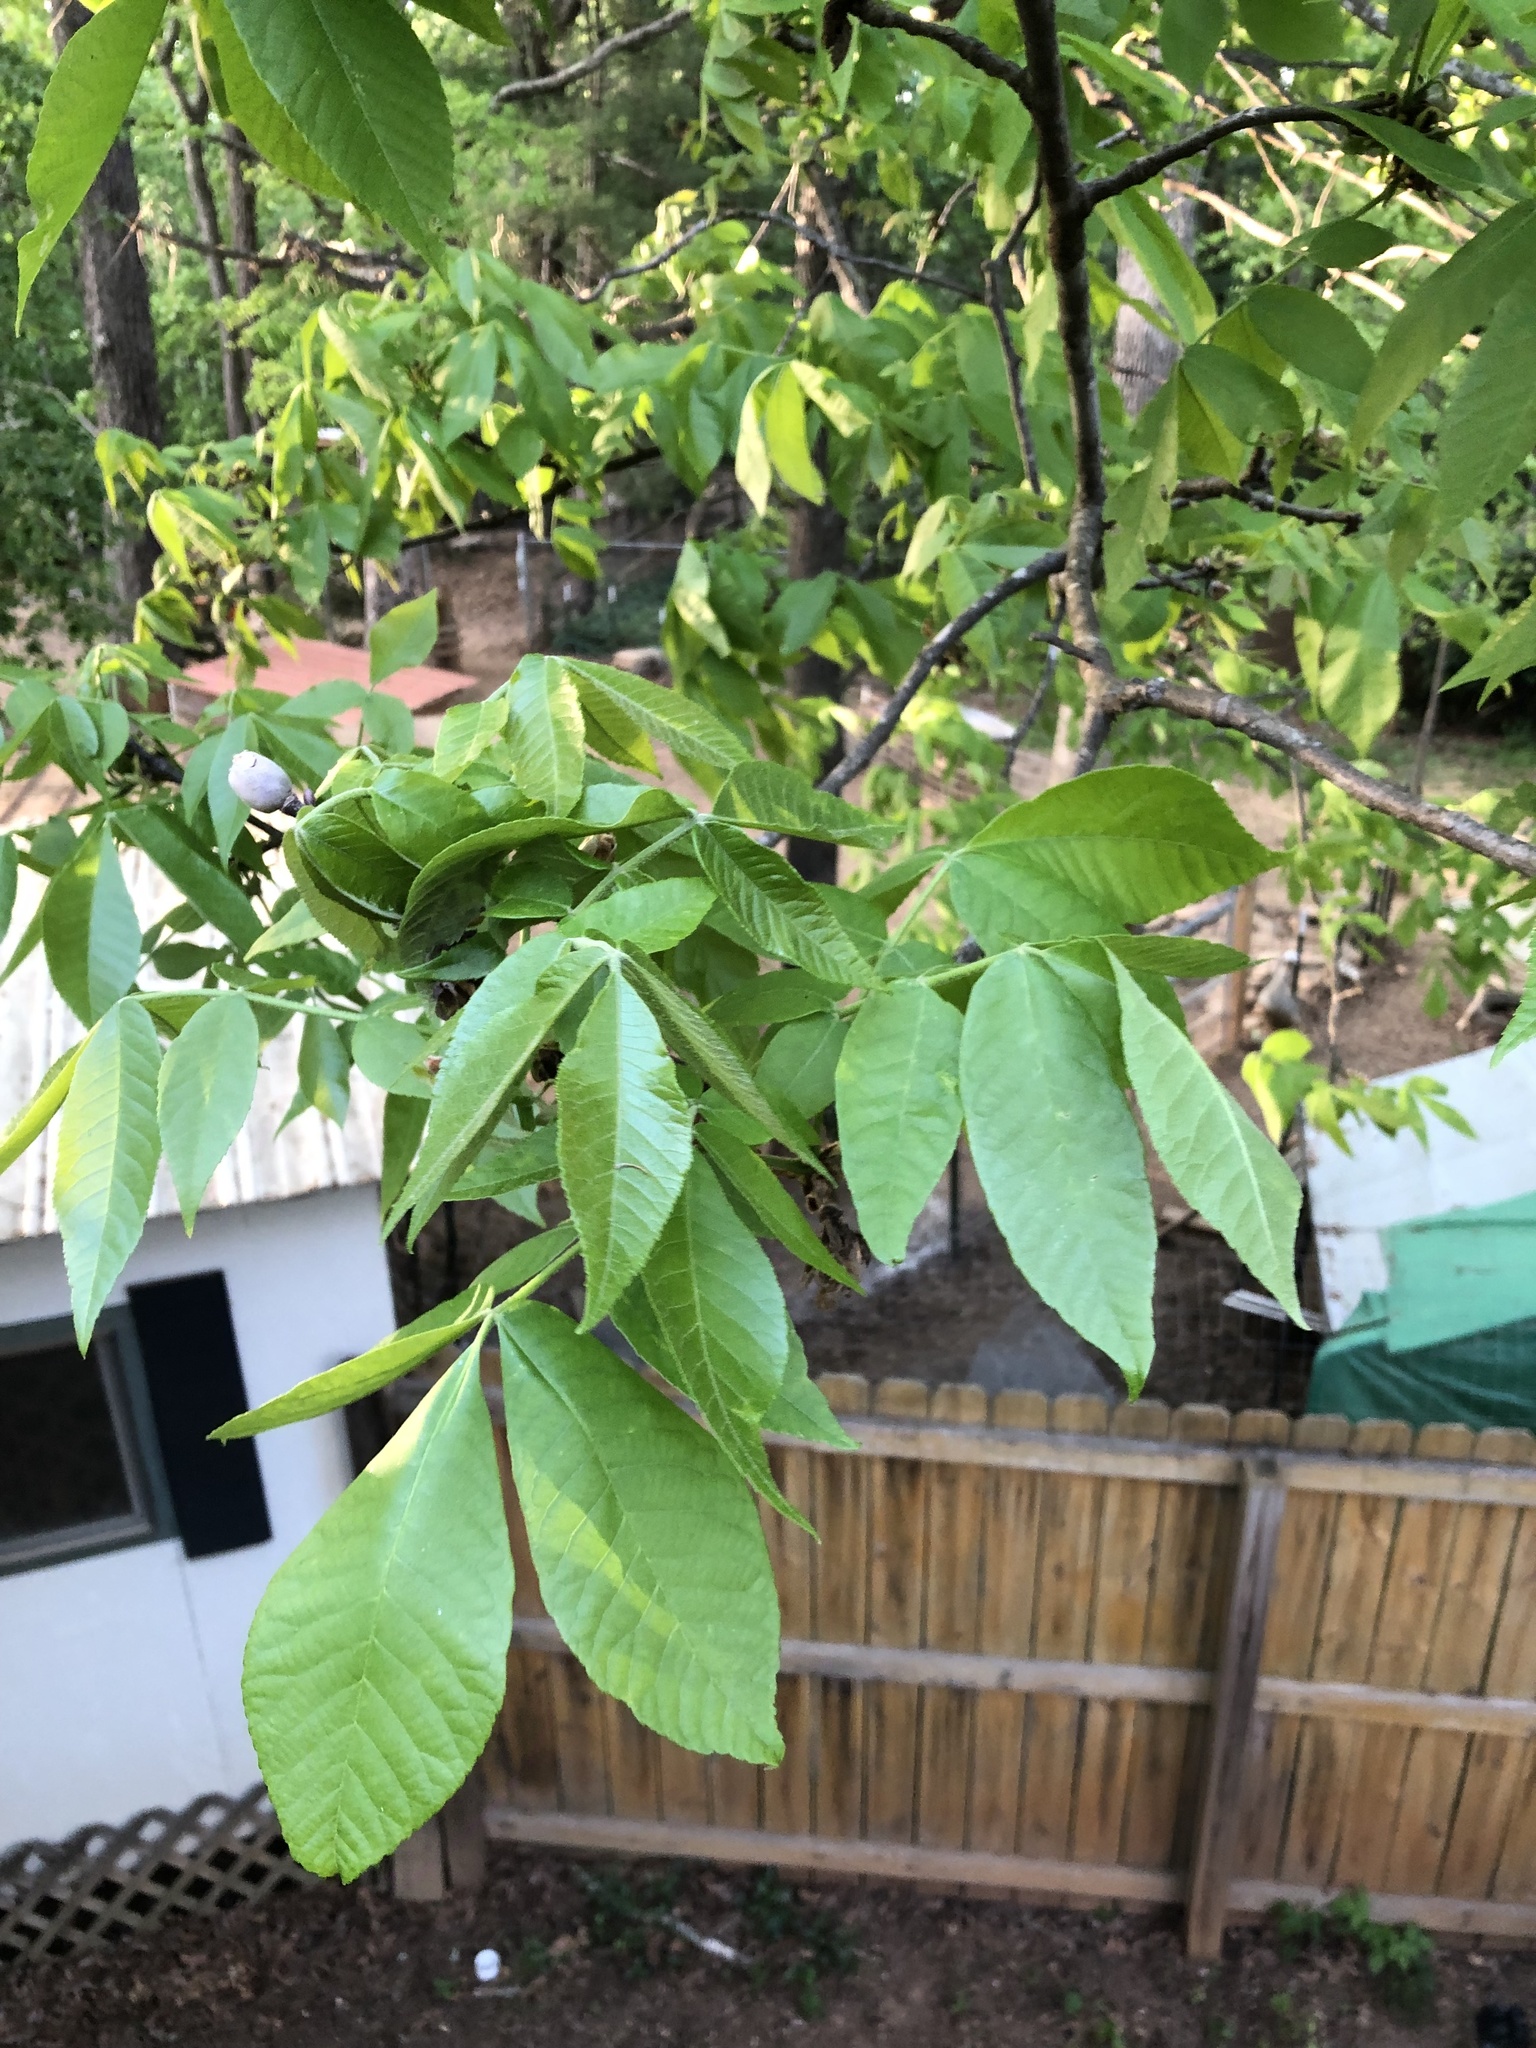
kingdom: Plantae
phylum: Tracheophyta
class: Magnoliopsida
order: Fagales
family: Juglandaceae
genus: Carya
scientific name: Carya alba
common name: Mockernut hickory
